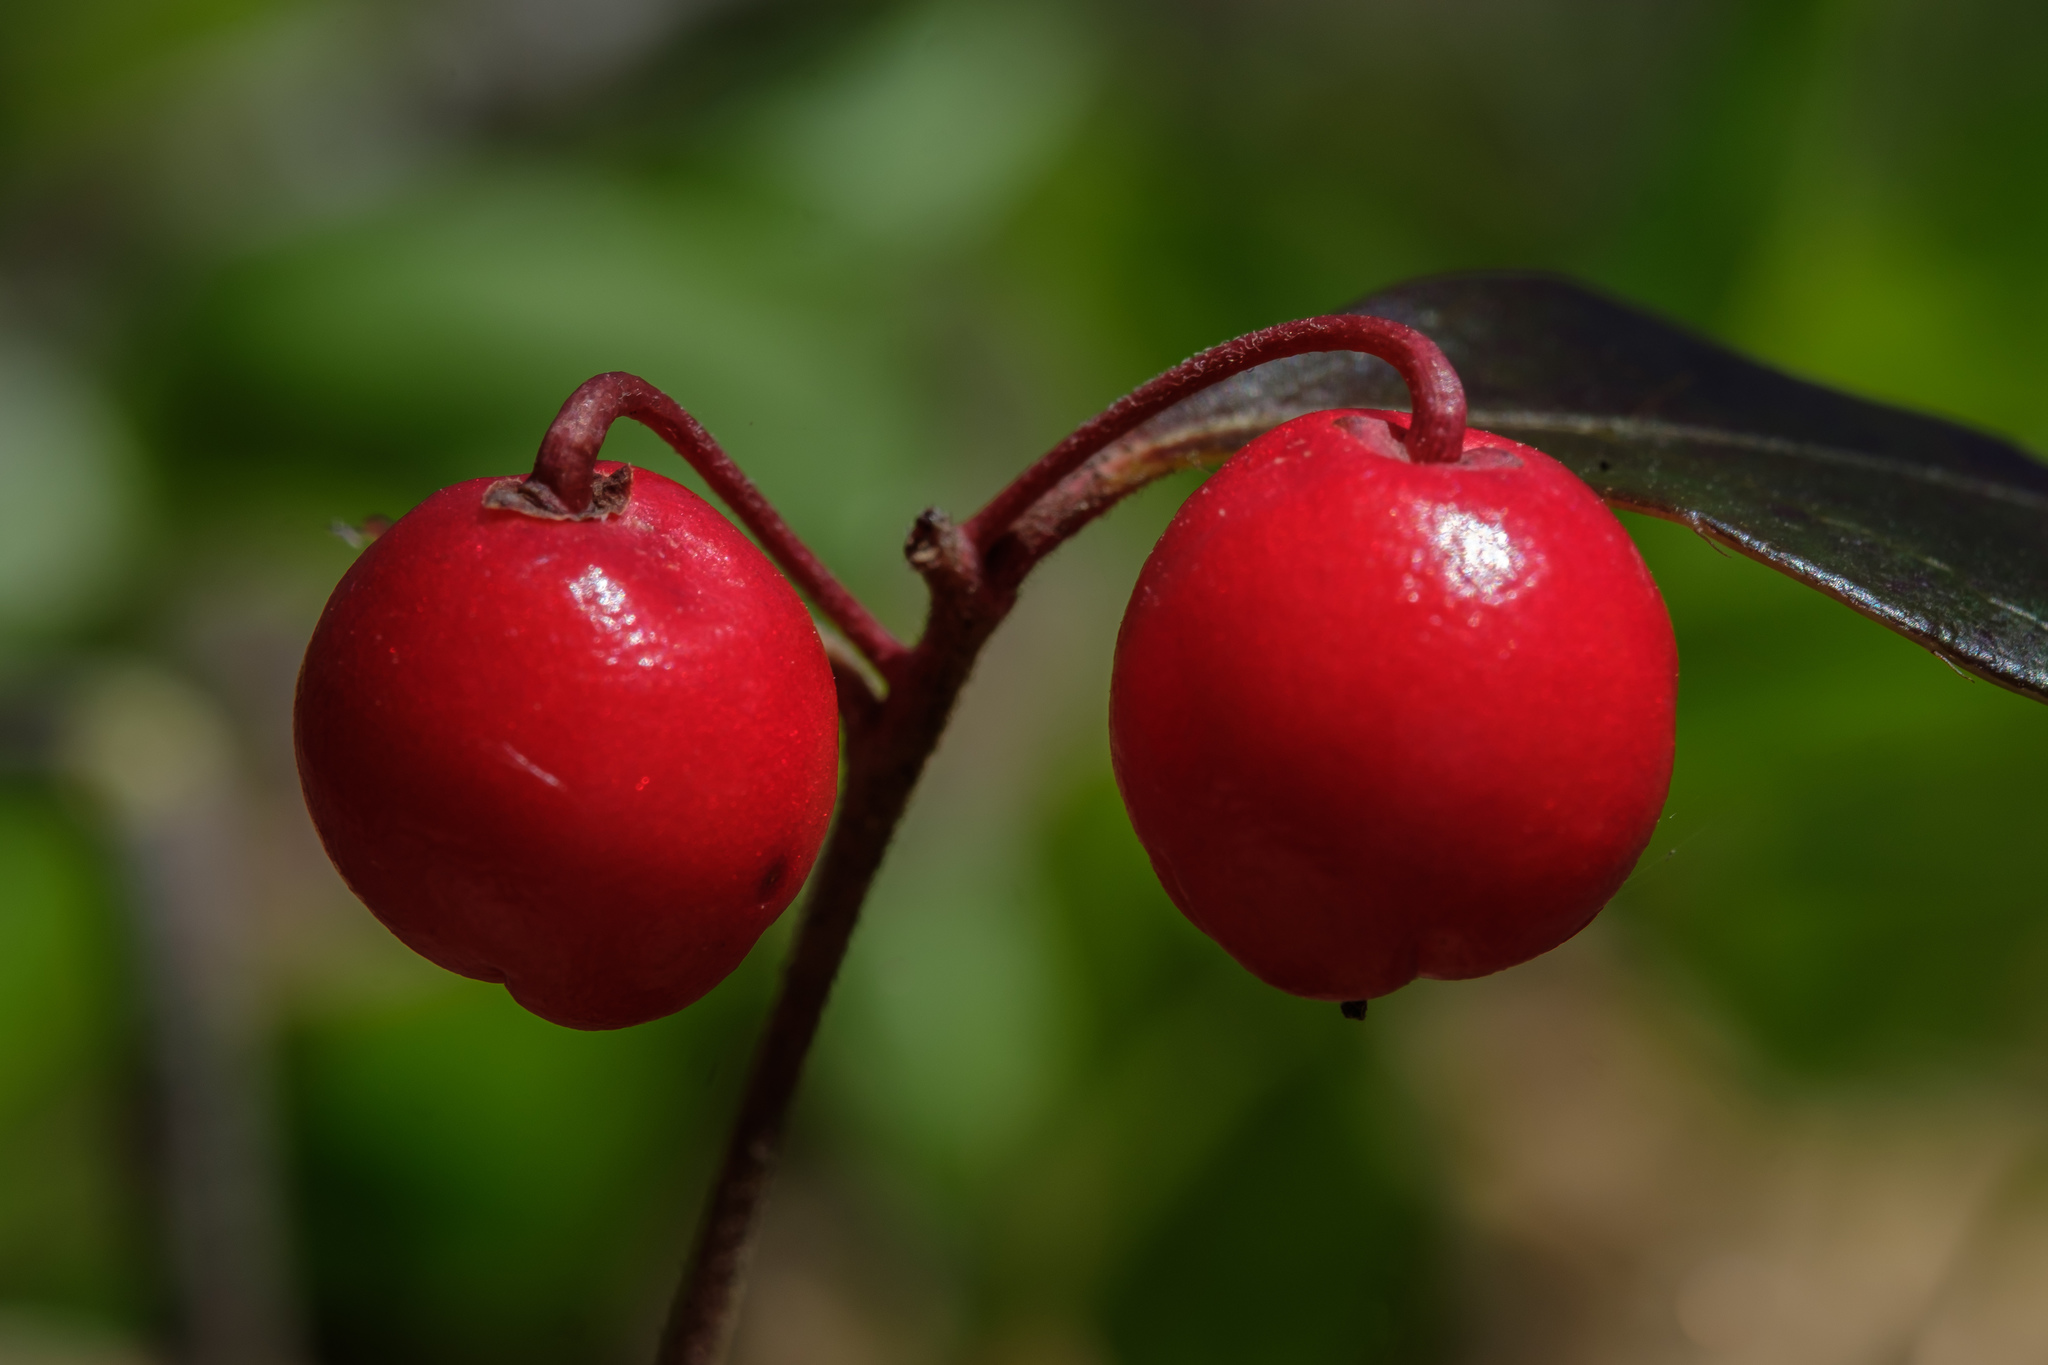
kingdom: Plantae
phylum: Tracheophyta
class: Magnoliopsida
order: Ericales
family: Ericaceae
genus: Gaultheria
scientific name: Gaultheria procumbens
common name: Checkerberry
